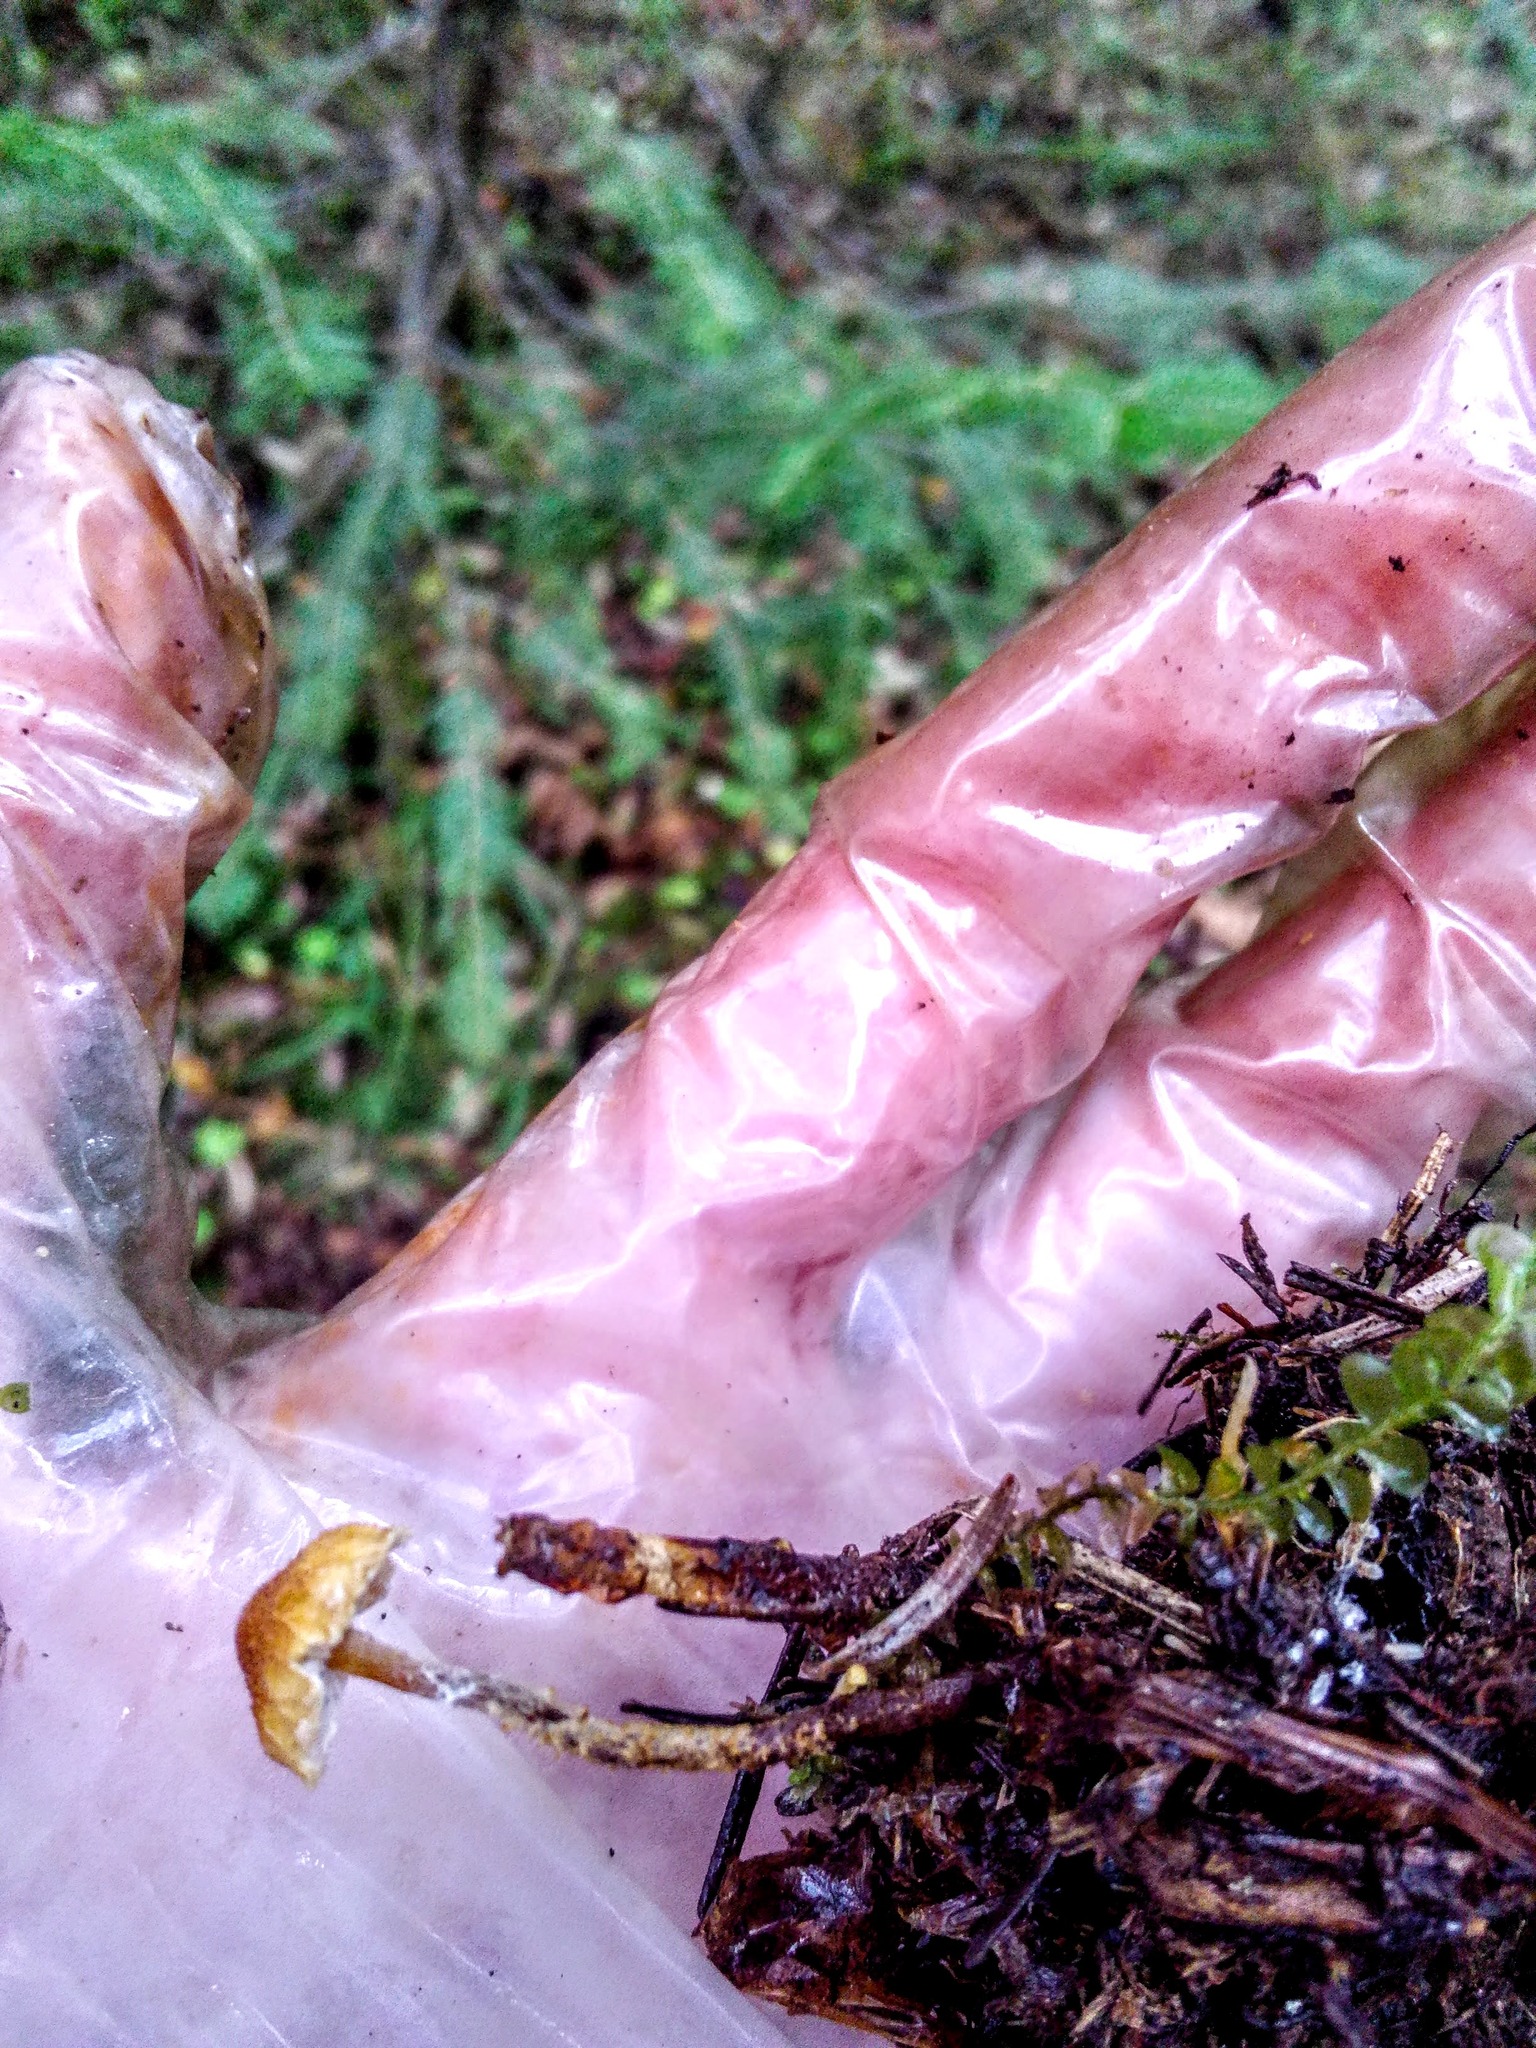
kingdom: Fungi
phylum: Basidiomycota
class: Agaricomycetes
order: Agaricales
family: Tricholomataceae
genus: Cystoderma
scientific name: Cystoderma jasonis
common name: Pine powdercap
